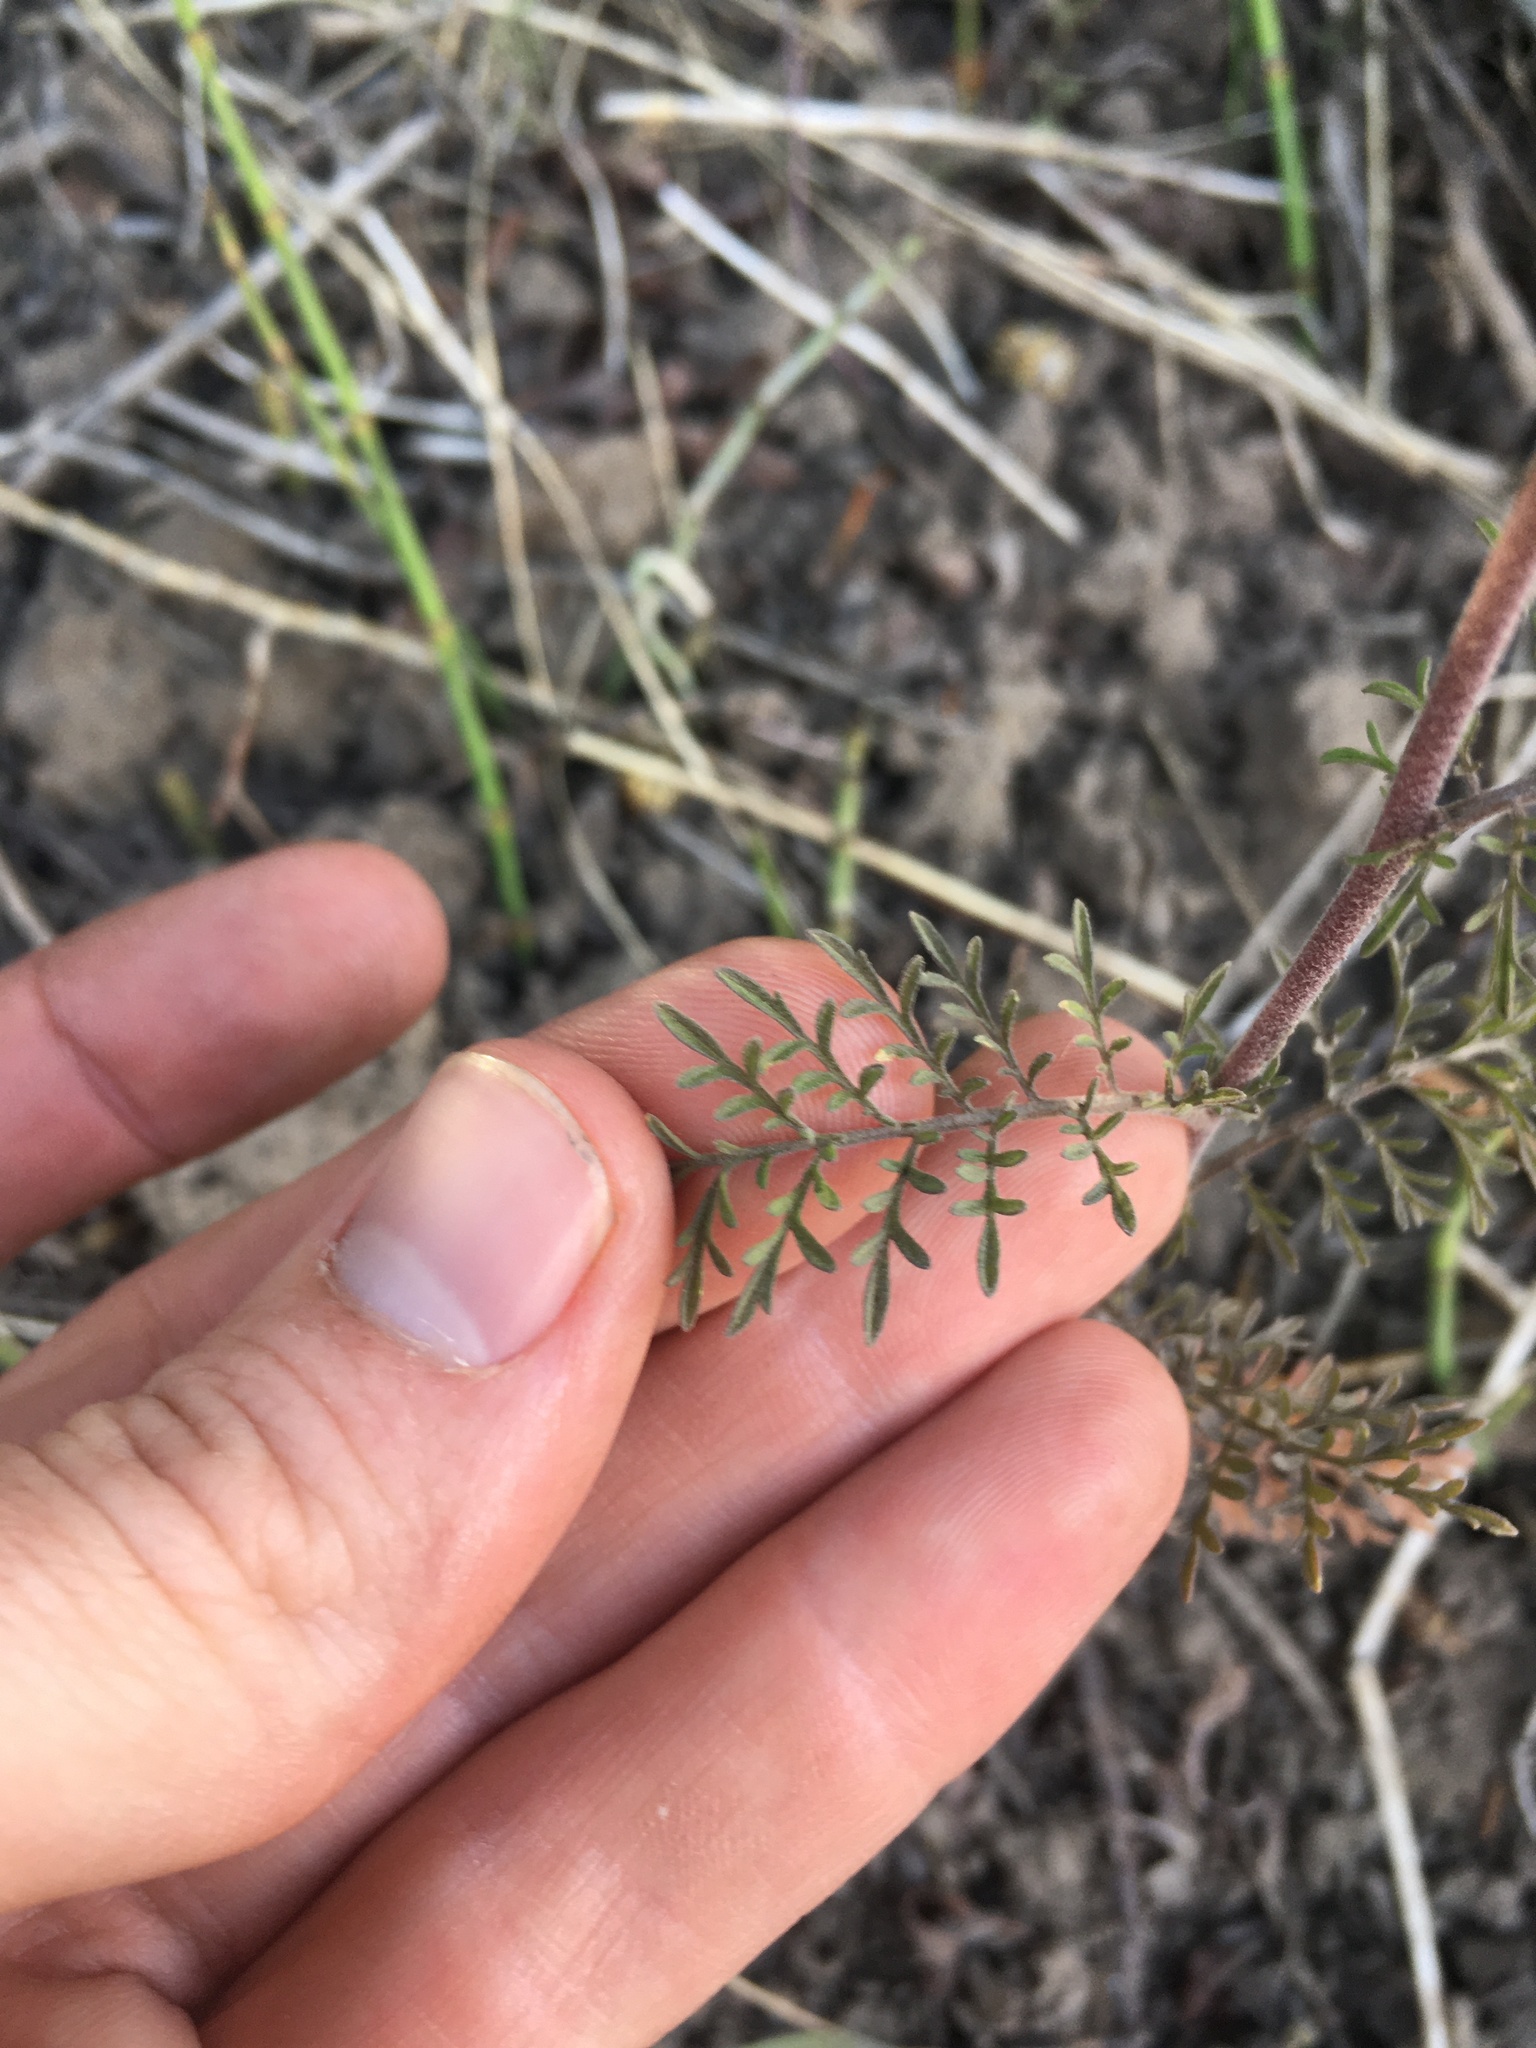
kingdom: Plantae
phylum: Tracheophyta
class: Magnoliopsida
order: Brassicales
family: Brassicaceae
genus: Descurainia
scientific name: Descurainia sophia
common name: Flixweed
